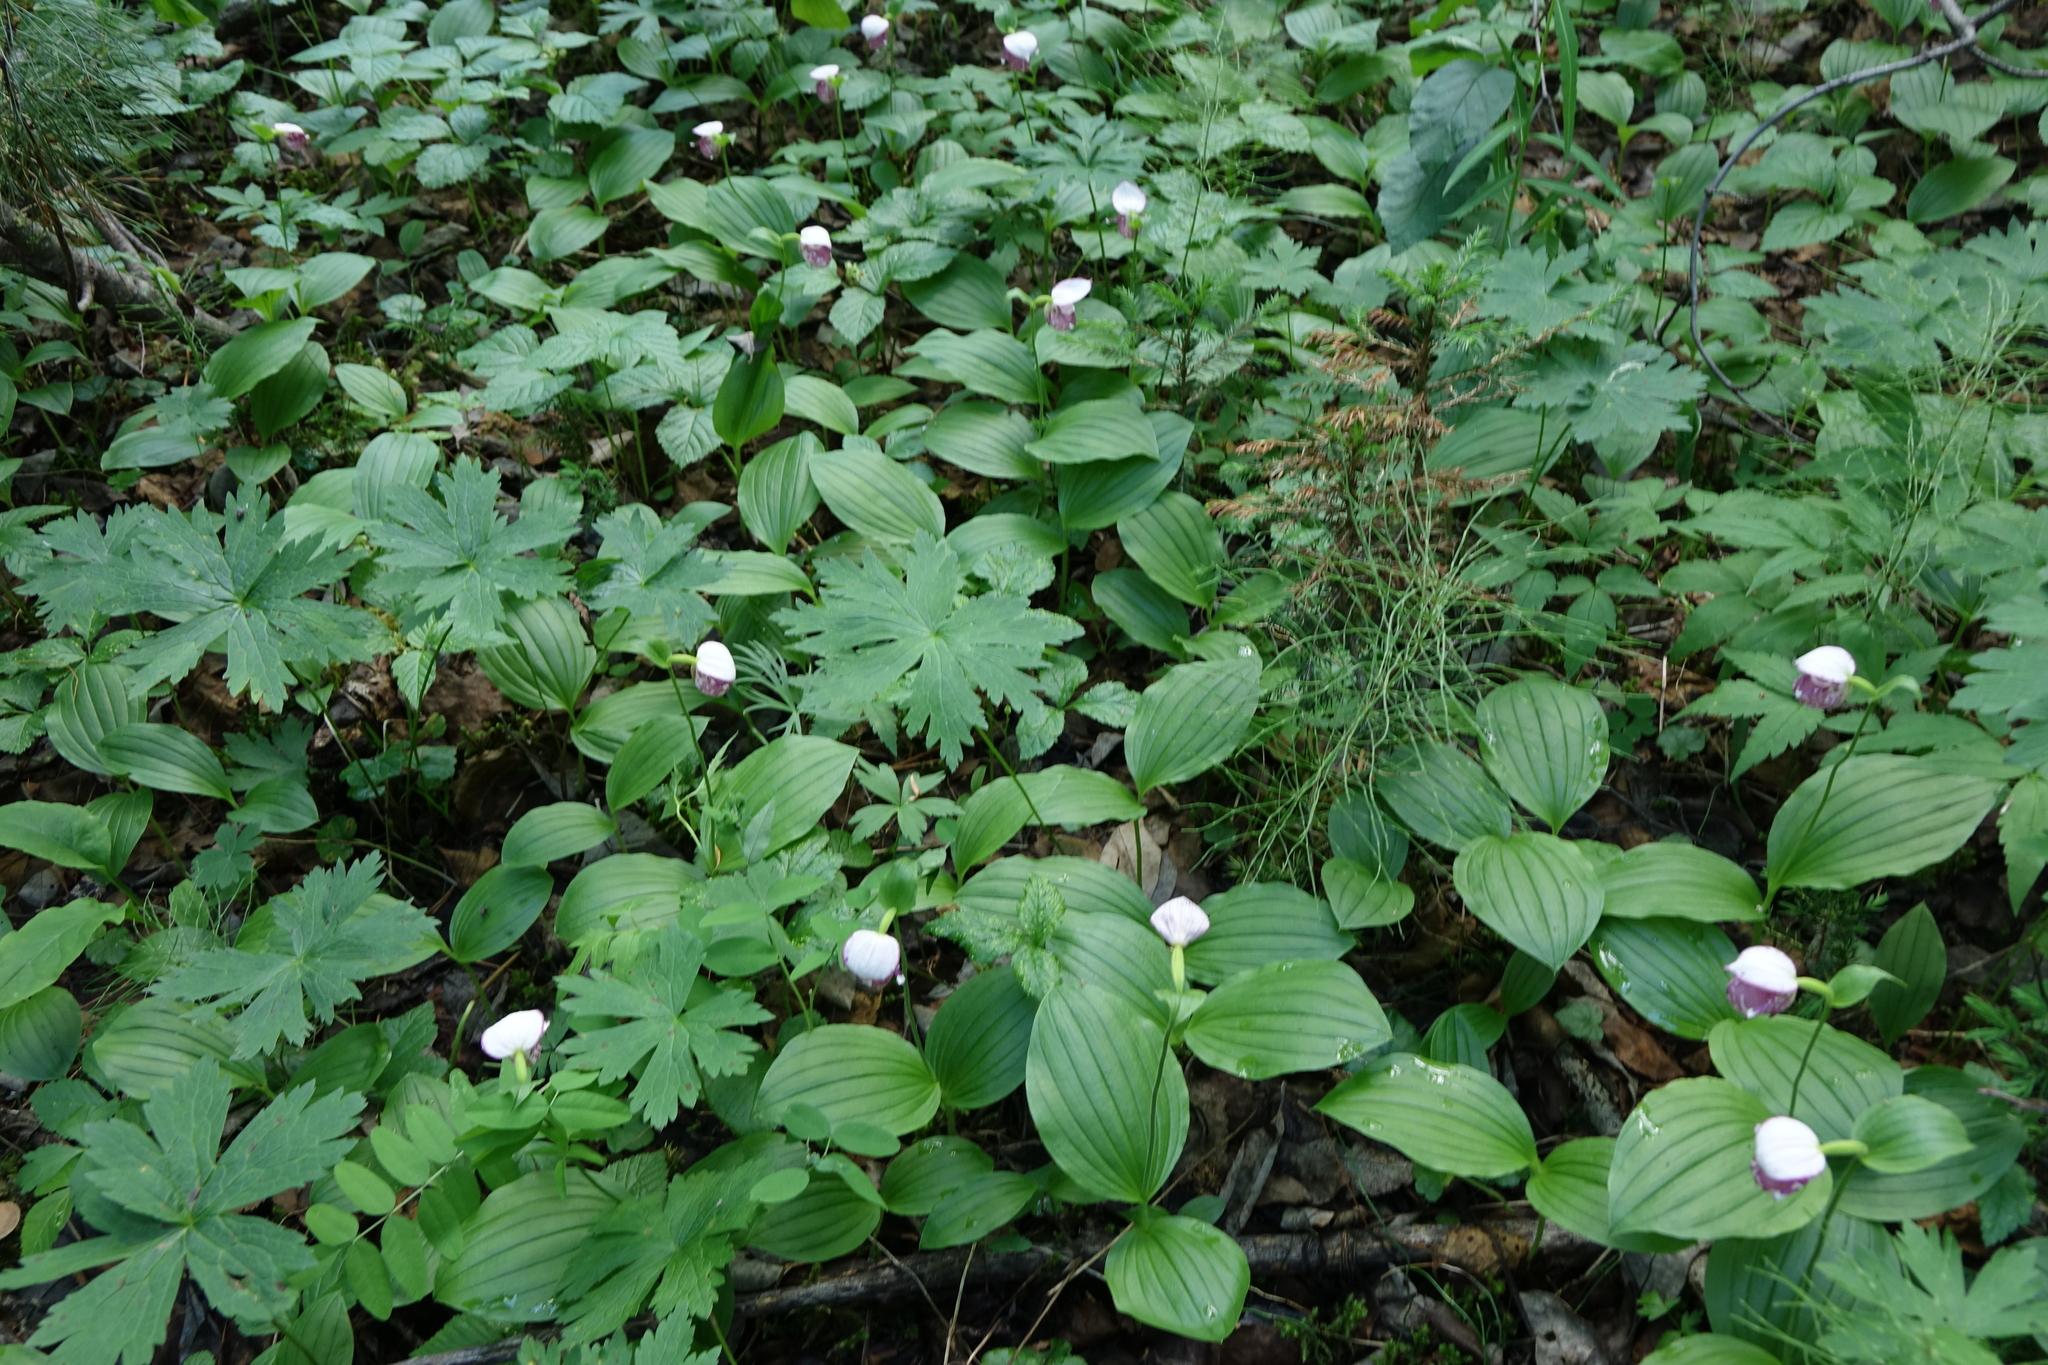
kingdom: Plantae
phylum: Tracheophyta
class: Liliopsida
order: Asparagales
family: Orchidaceae
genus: Cypripedium
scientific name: Cypripedium guttatum
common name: Pink lady slipper
